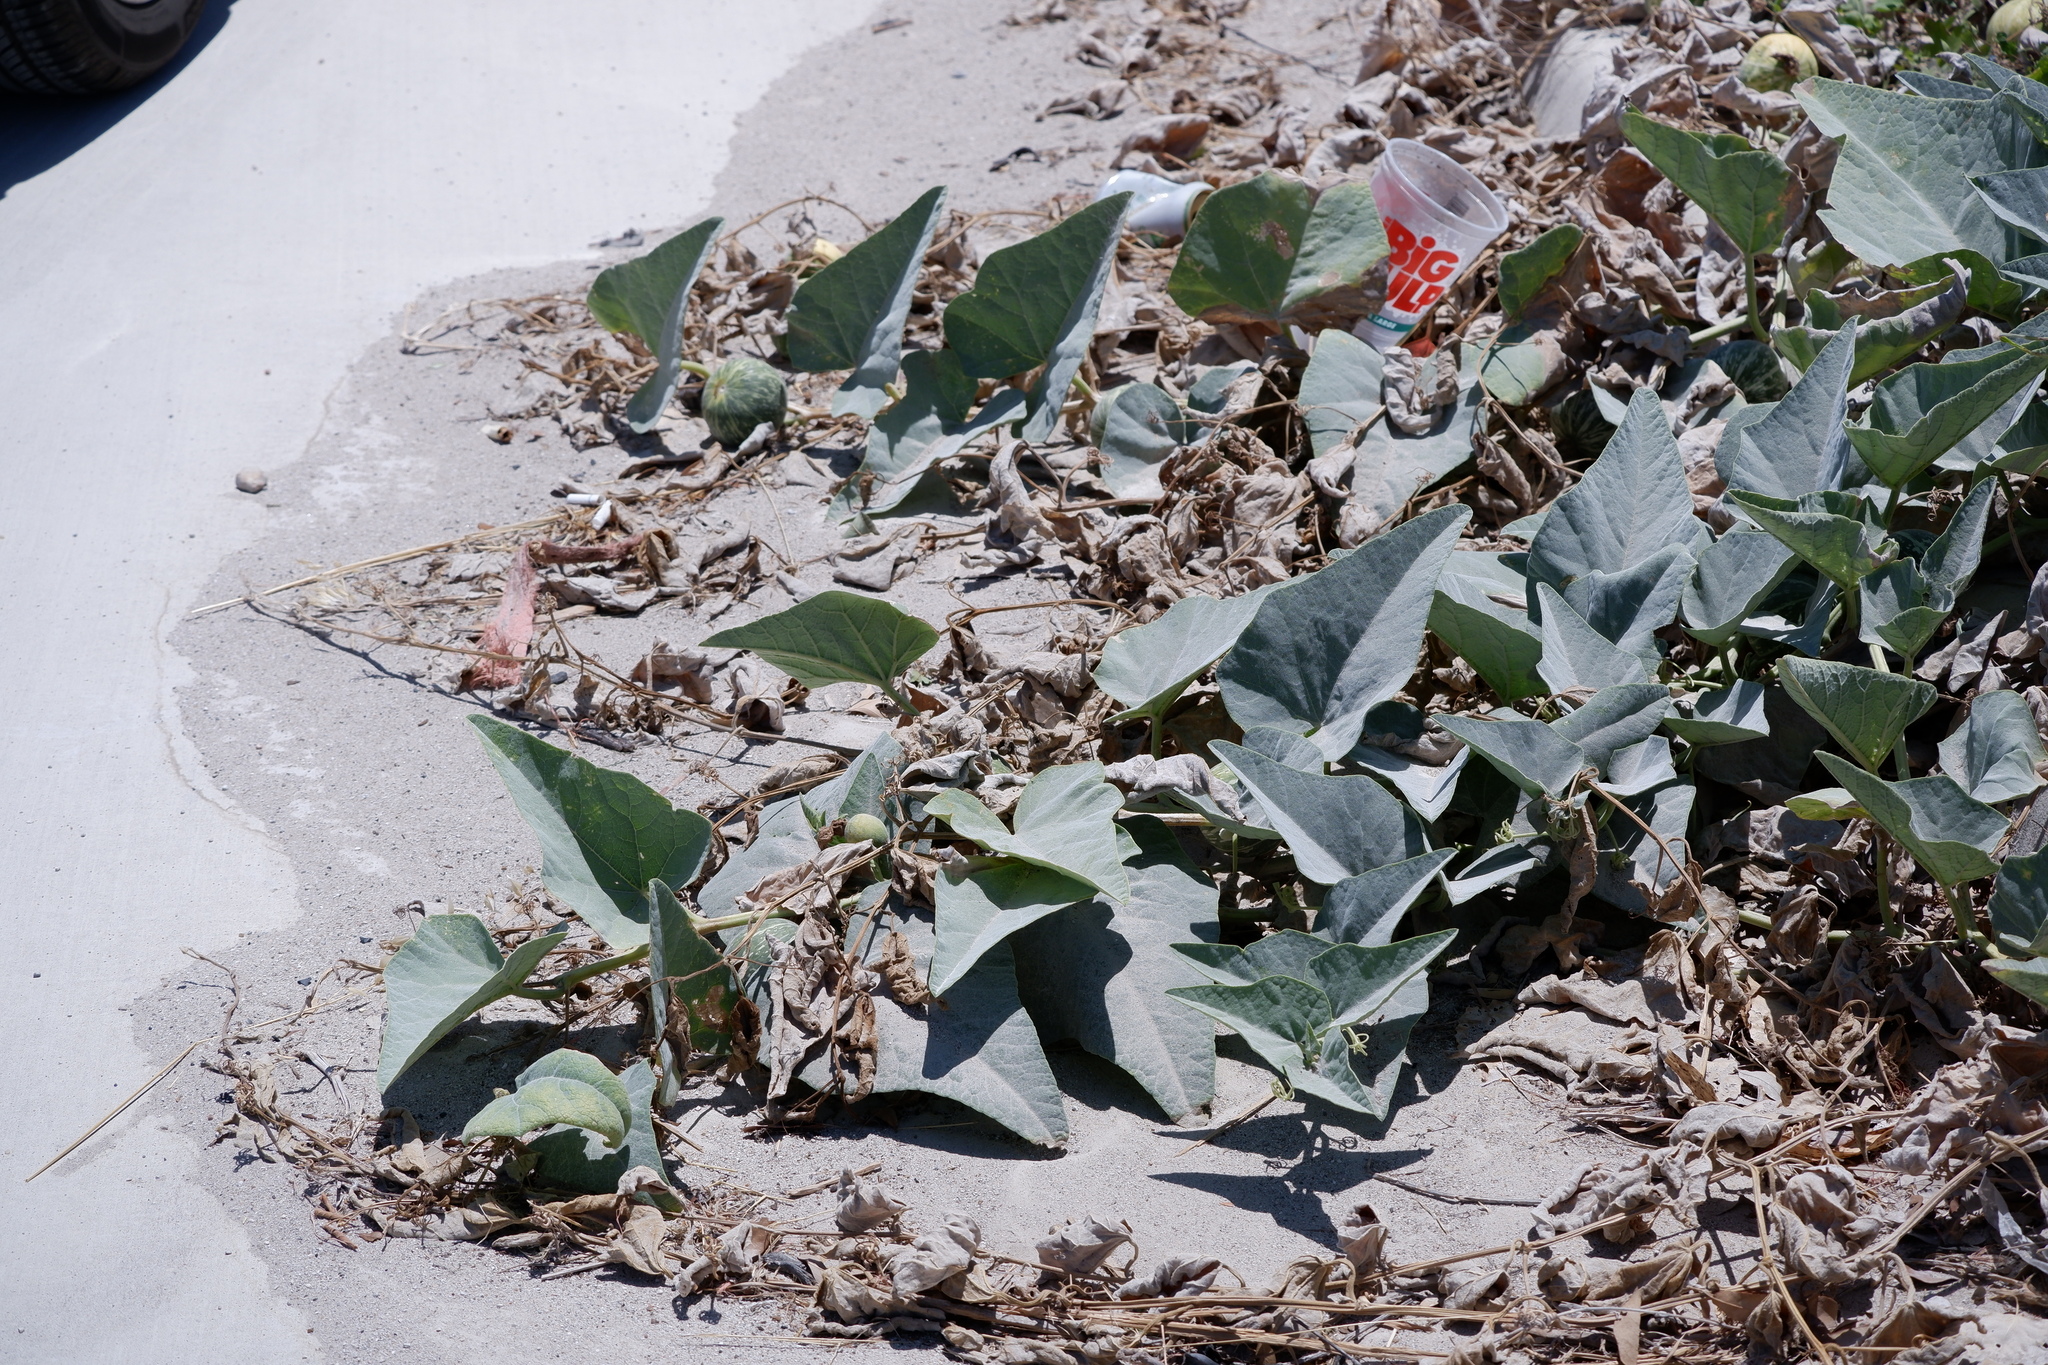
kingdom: Plantae
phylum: Tracheophyta
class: Magnoliopsida
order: Cucurbitales
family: Cucurbitaceae
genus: Cucurbita
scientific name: Cucurbita foetidissima
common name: Buffalo gourd
